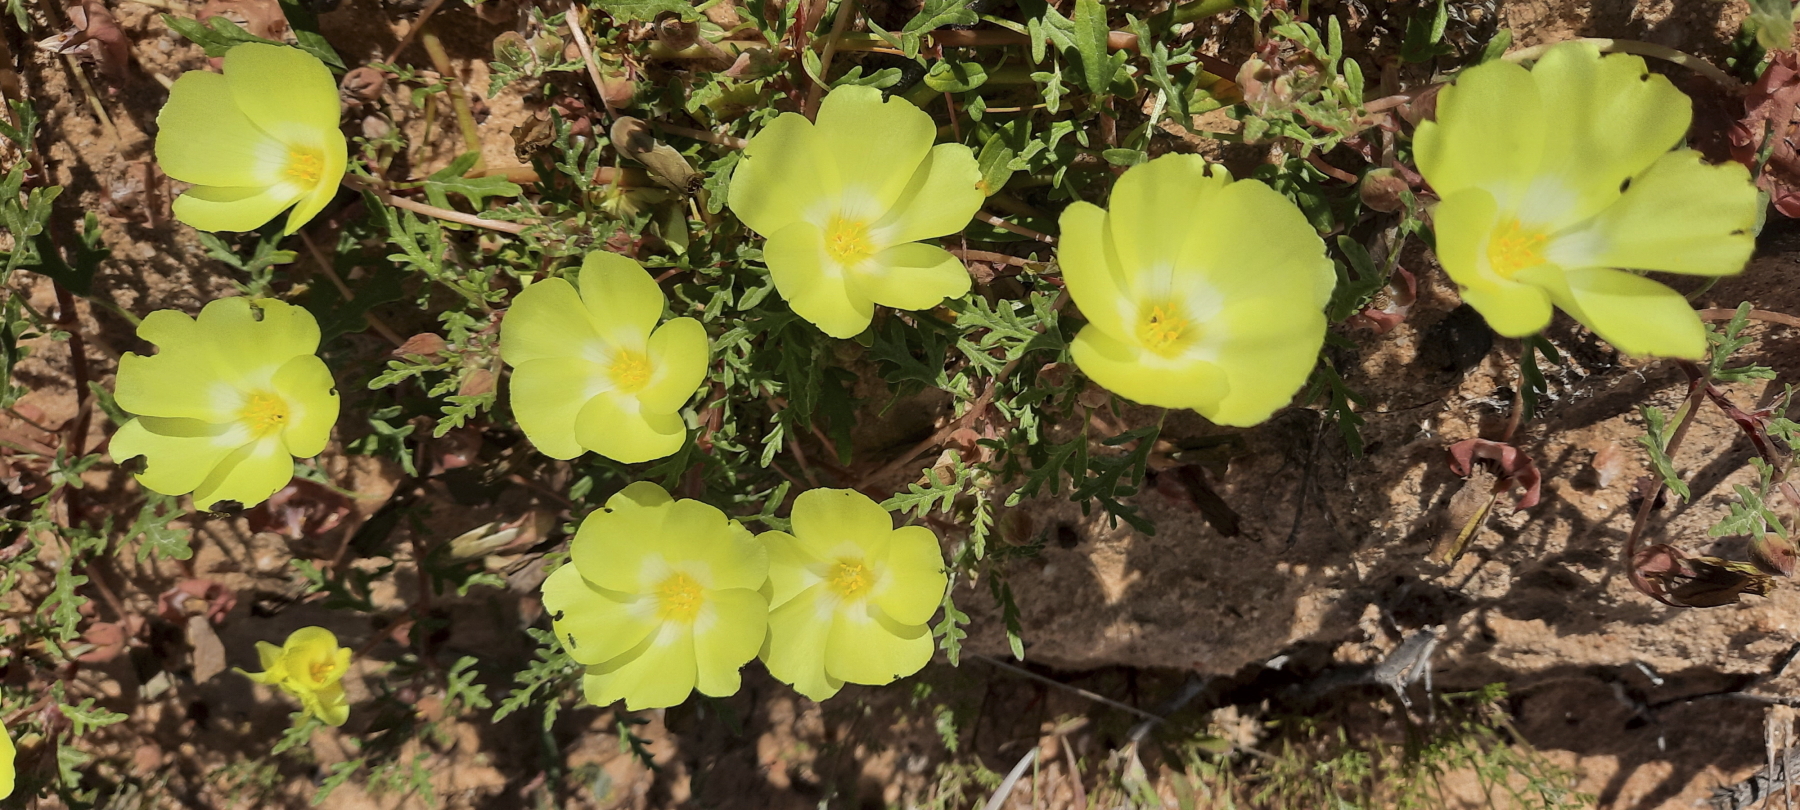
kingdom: Plantae
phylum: Tracheophyta
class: Magnoliopsida
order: Malvales
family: Neuradaceae
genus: Grielum
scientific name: Grielum humifusum
